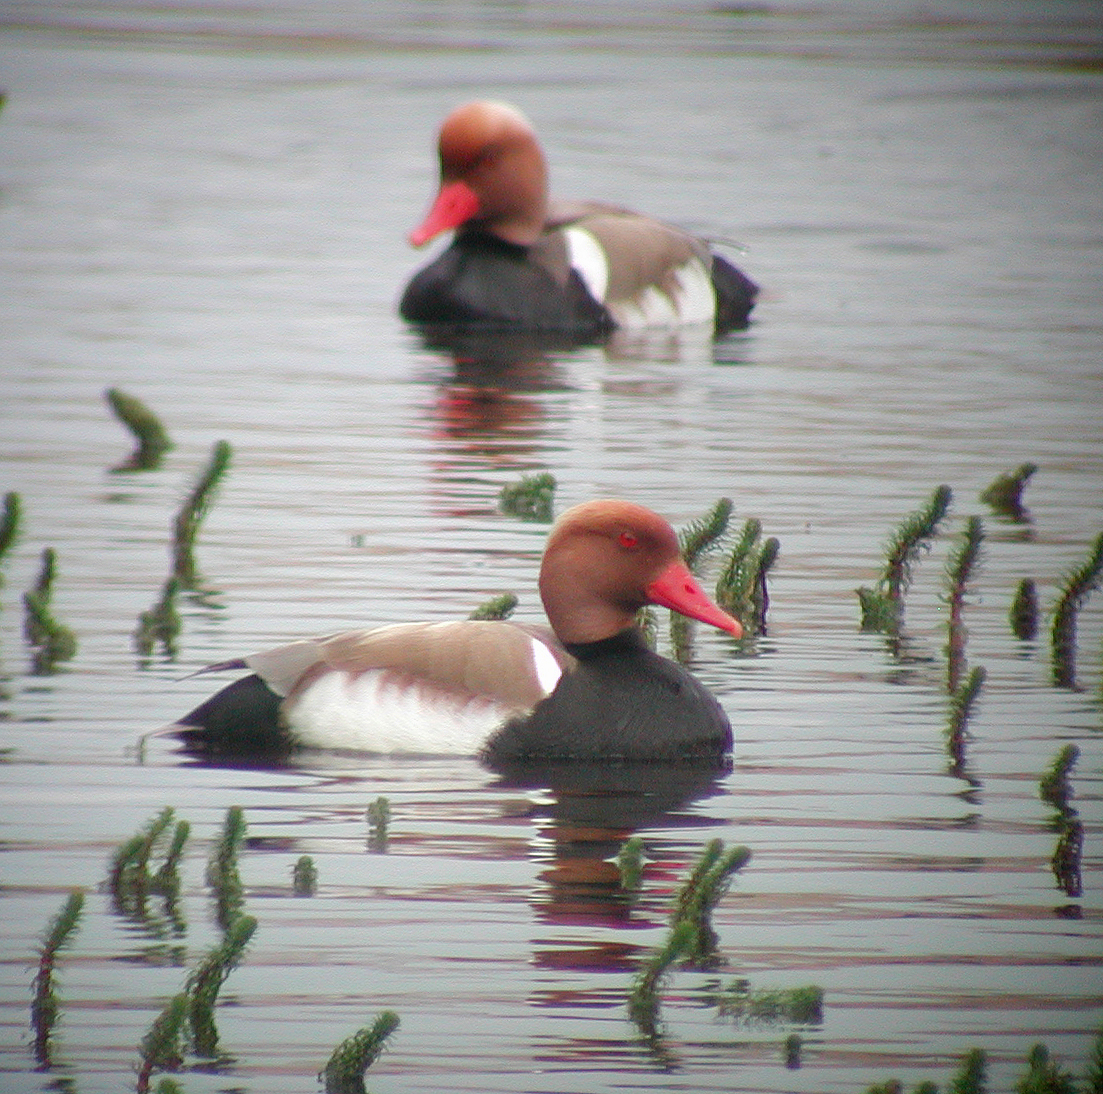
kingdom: Animalia
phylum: Chordata
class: Aves
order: Anseriformes
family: Anatidae
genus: Netta
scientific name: Netta rufina
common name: Red-crested pochard
